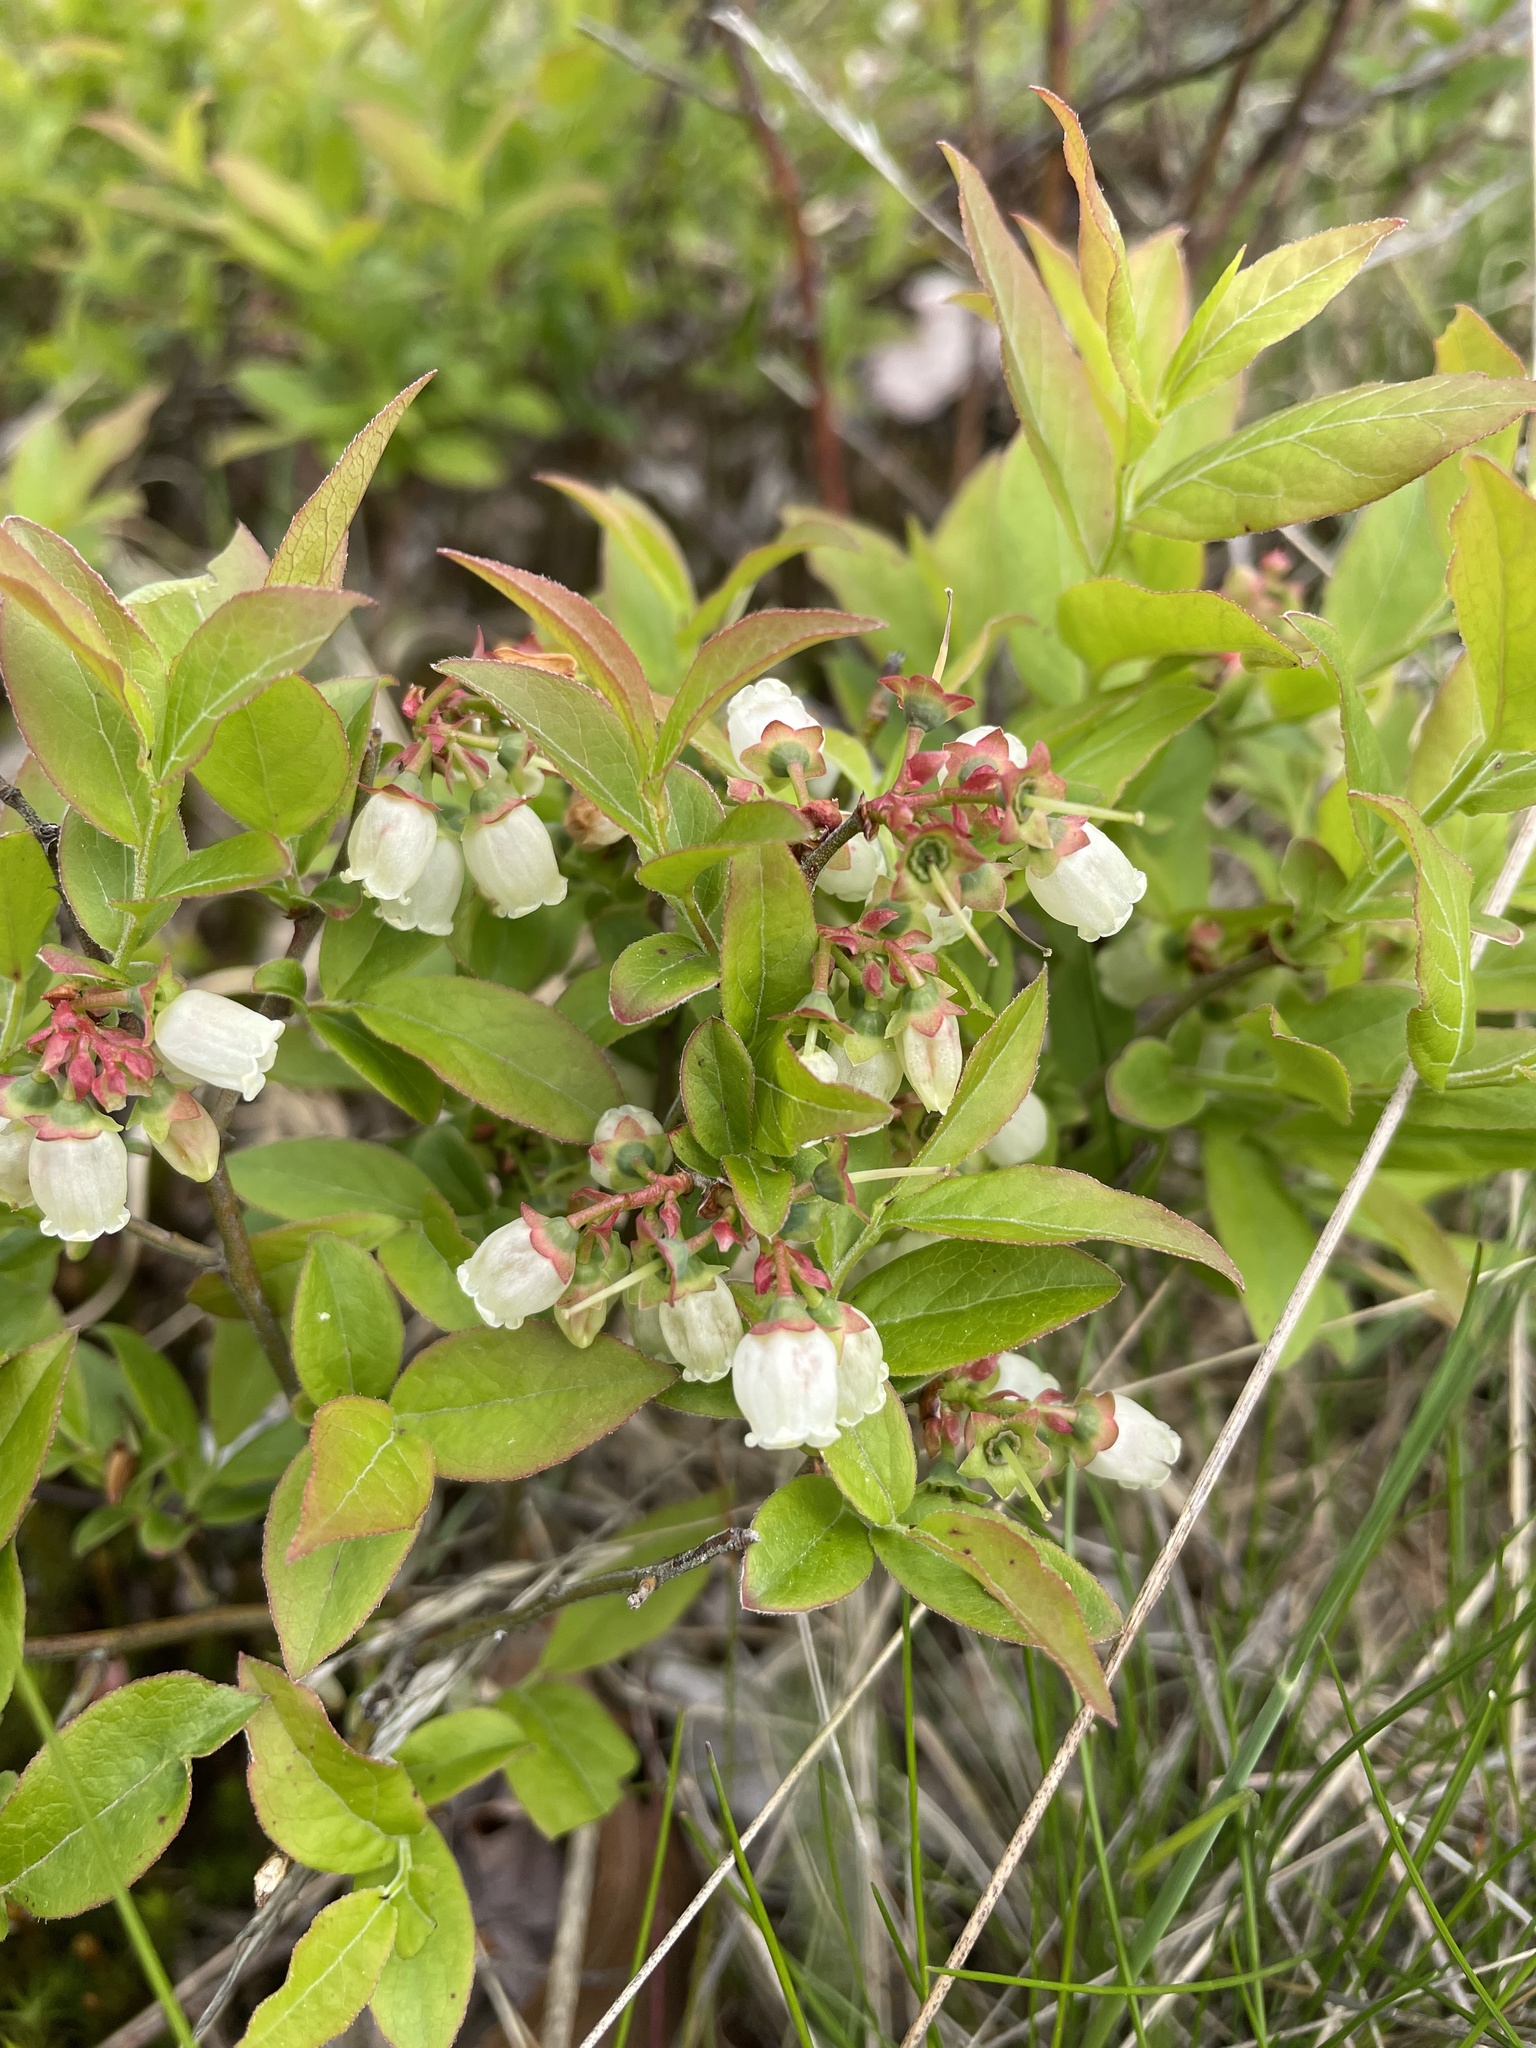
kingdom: Plantae
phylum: Tracheophyta
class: Magnoliopsida
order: Ericales
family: Ericaceae
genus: Vaccinium
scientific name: Vaccinium angustifolium
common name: Early lowbush blueberry
